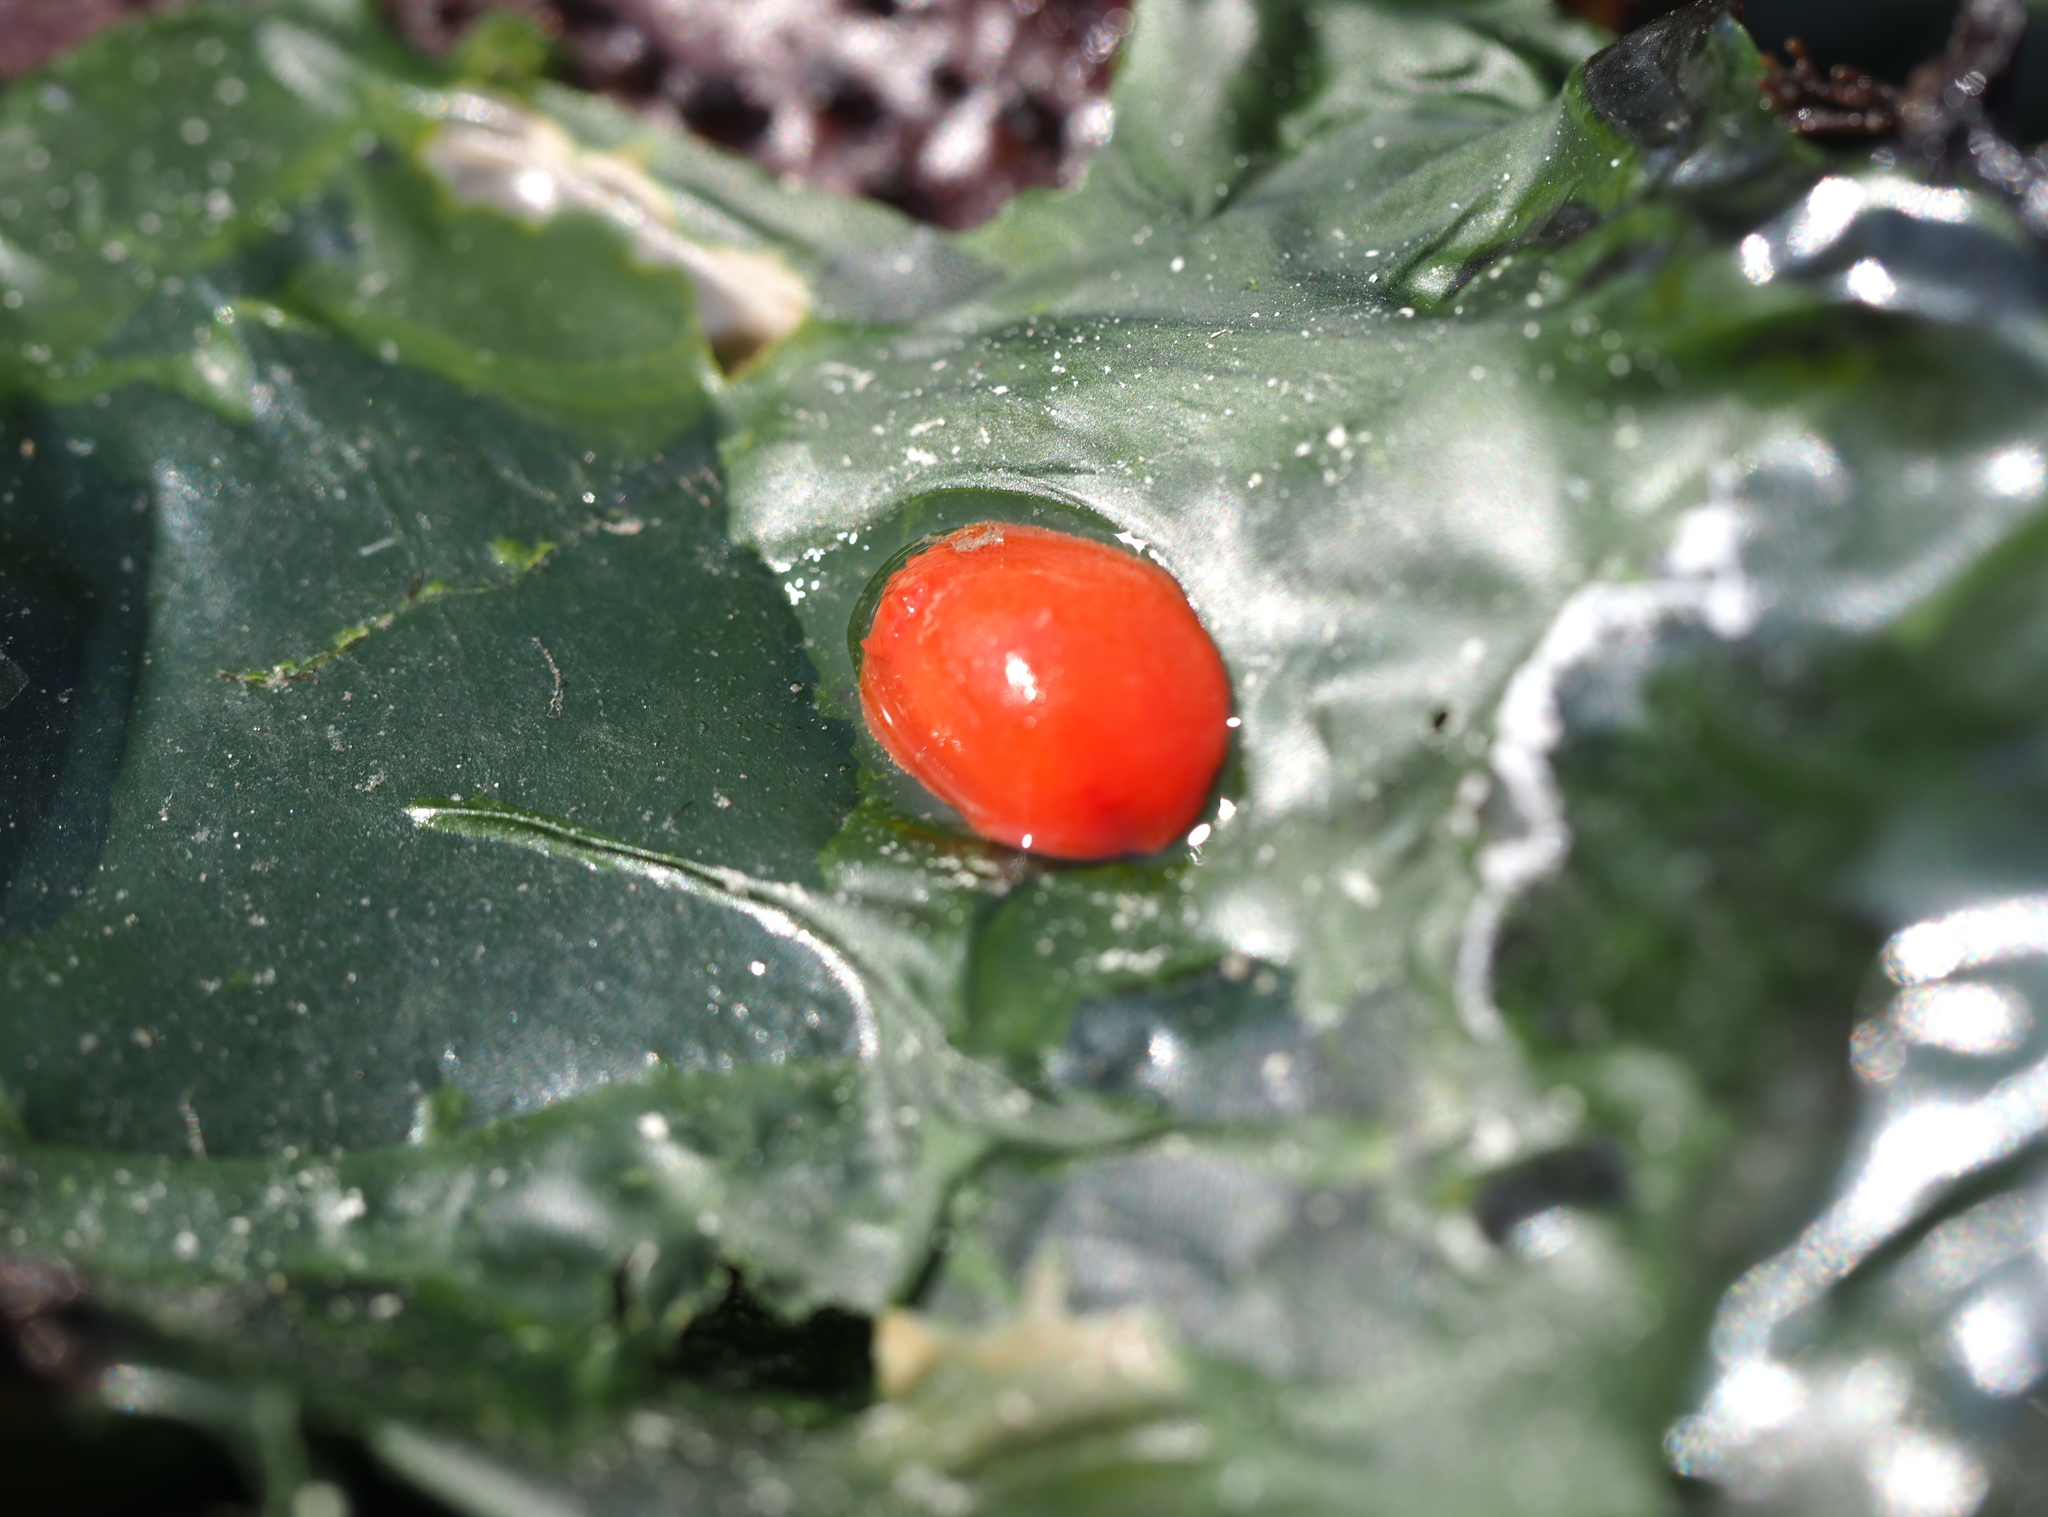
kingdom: Animalia
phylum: Mollusca
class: Gastropoda
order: Nudibranchia
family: Discodorididae
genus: Rostanga
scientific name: Rostanga pulchra
